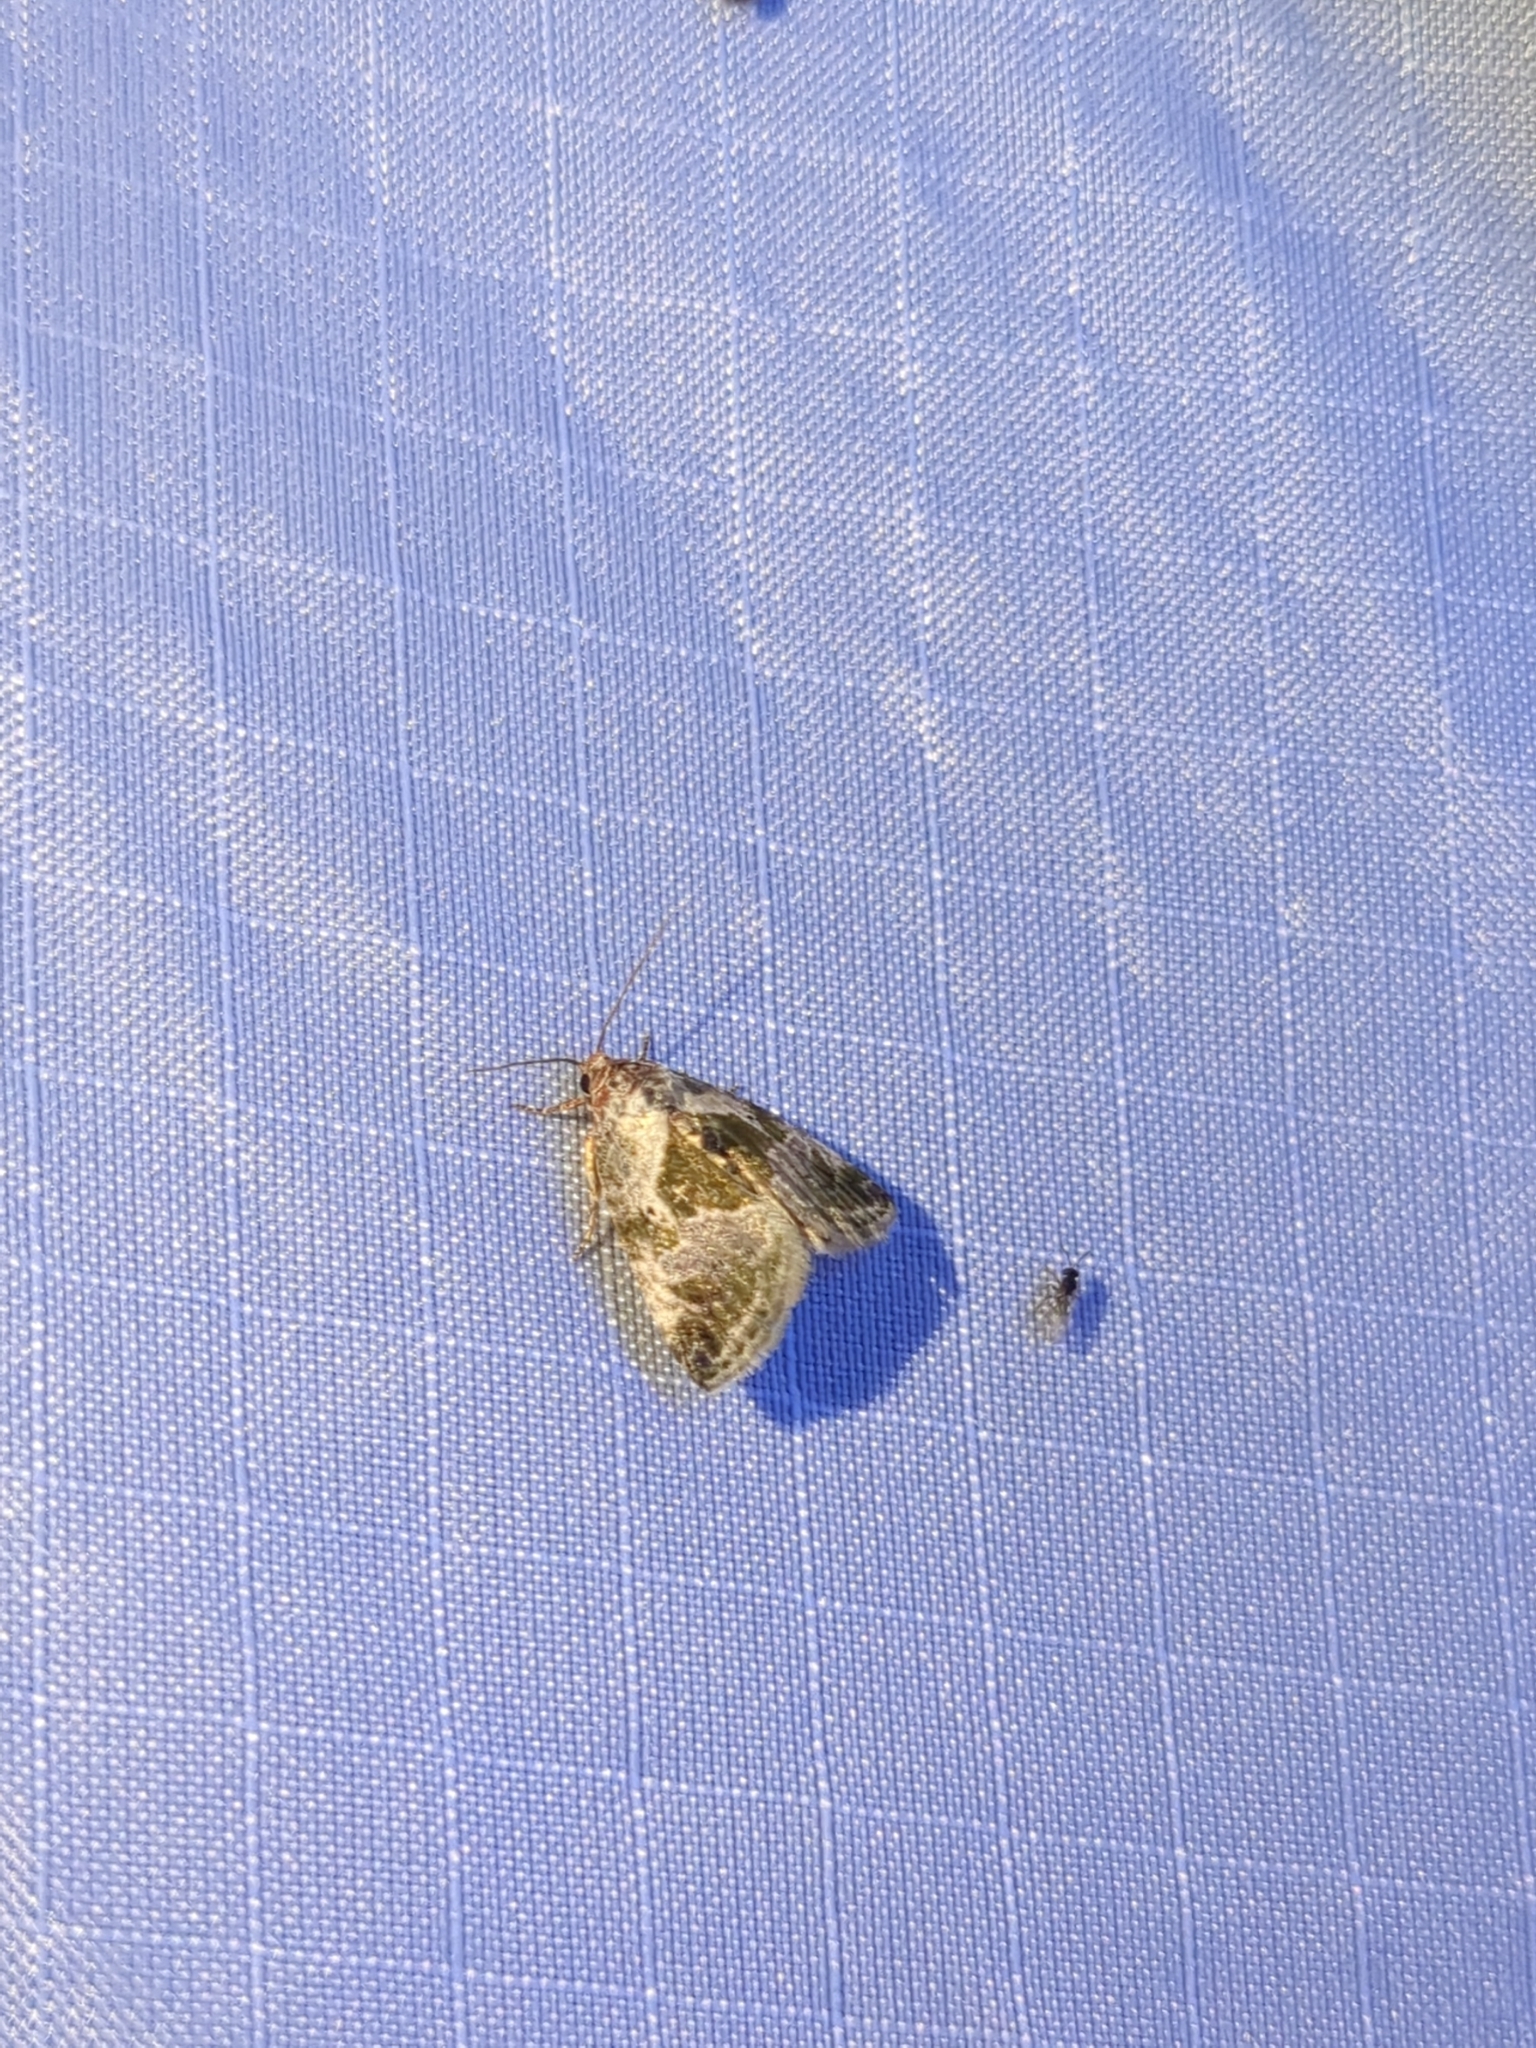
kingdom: Animalia
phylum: Arthropoda
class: Insecta
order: Lepidoptera
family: Noctuidae
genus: Maliattha
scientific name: Maliattha synochitis
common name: Black-dotted glyph
